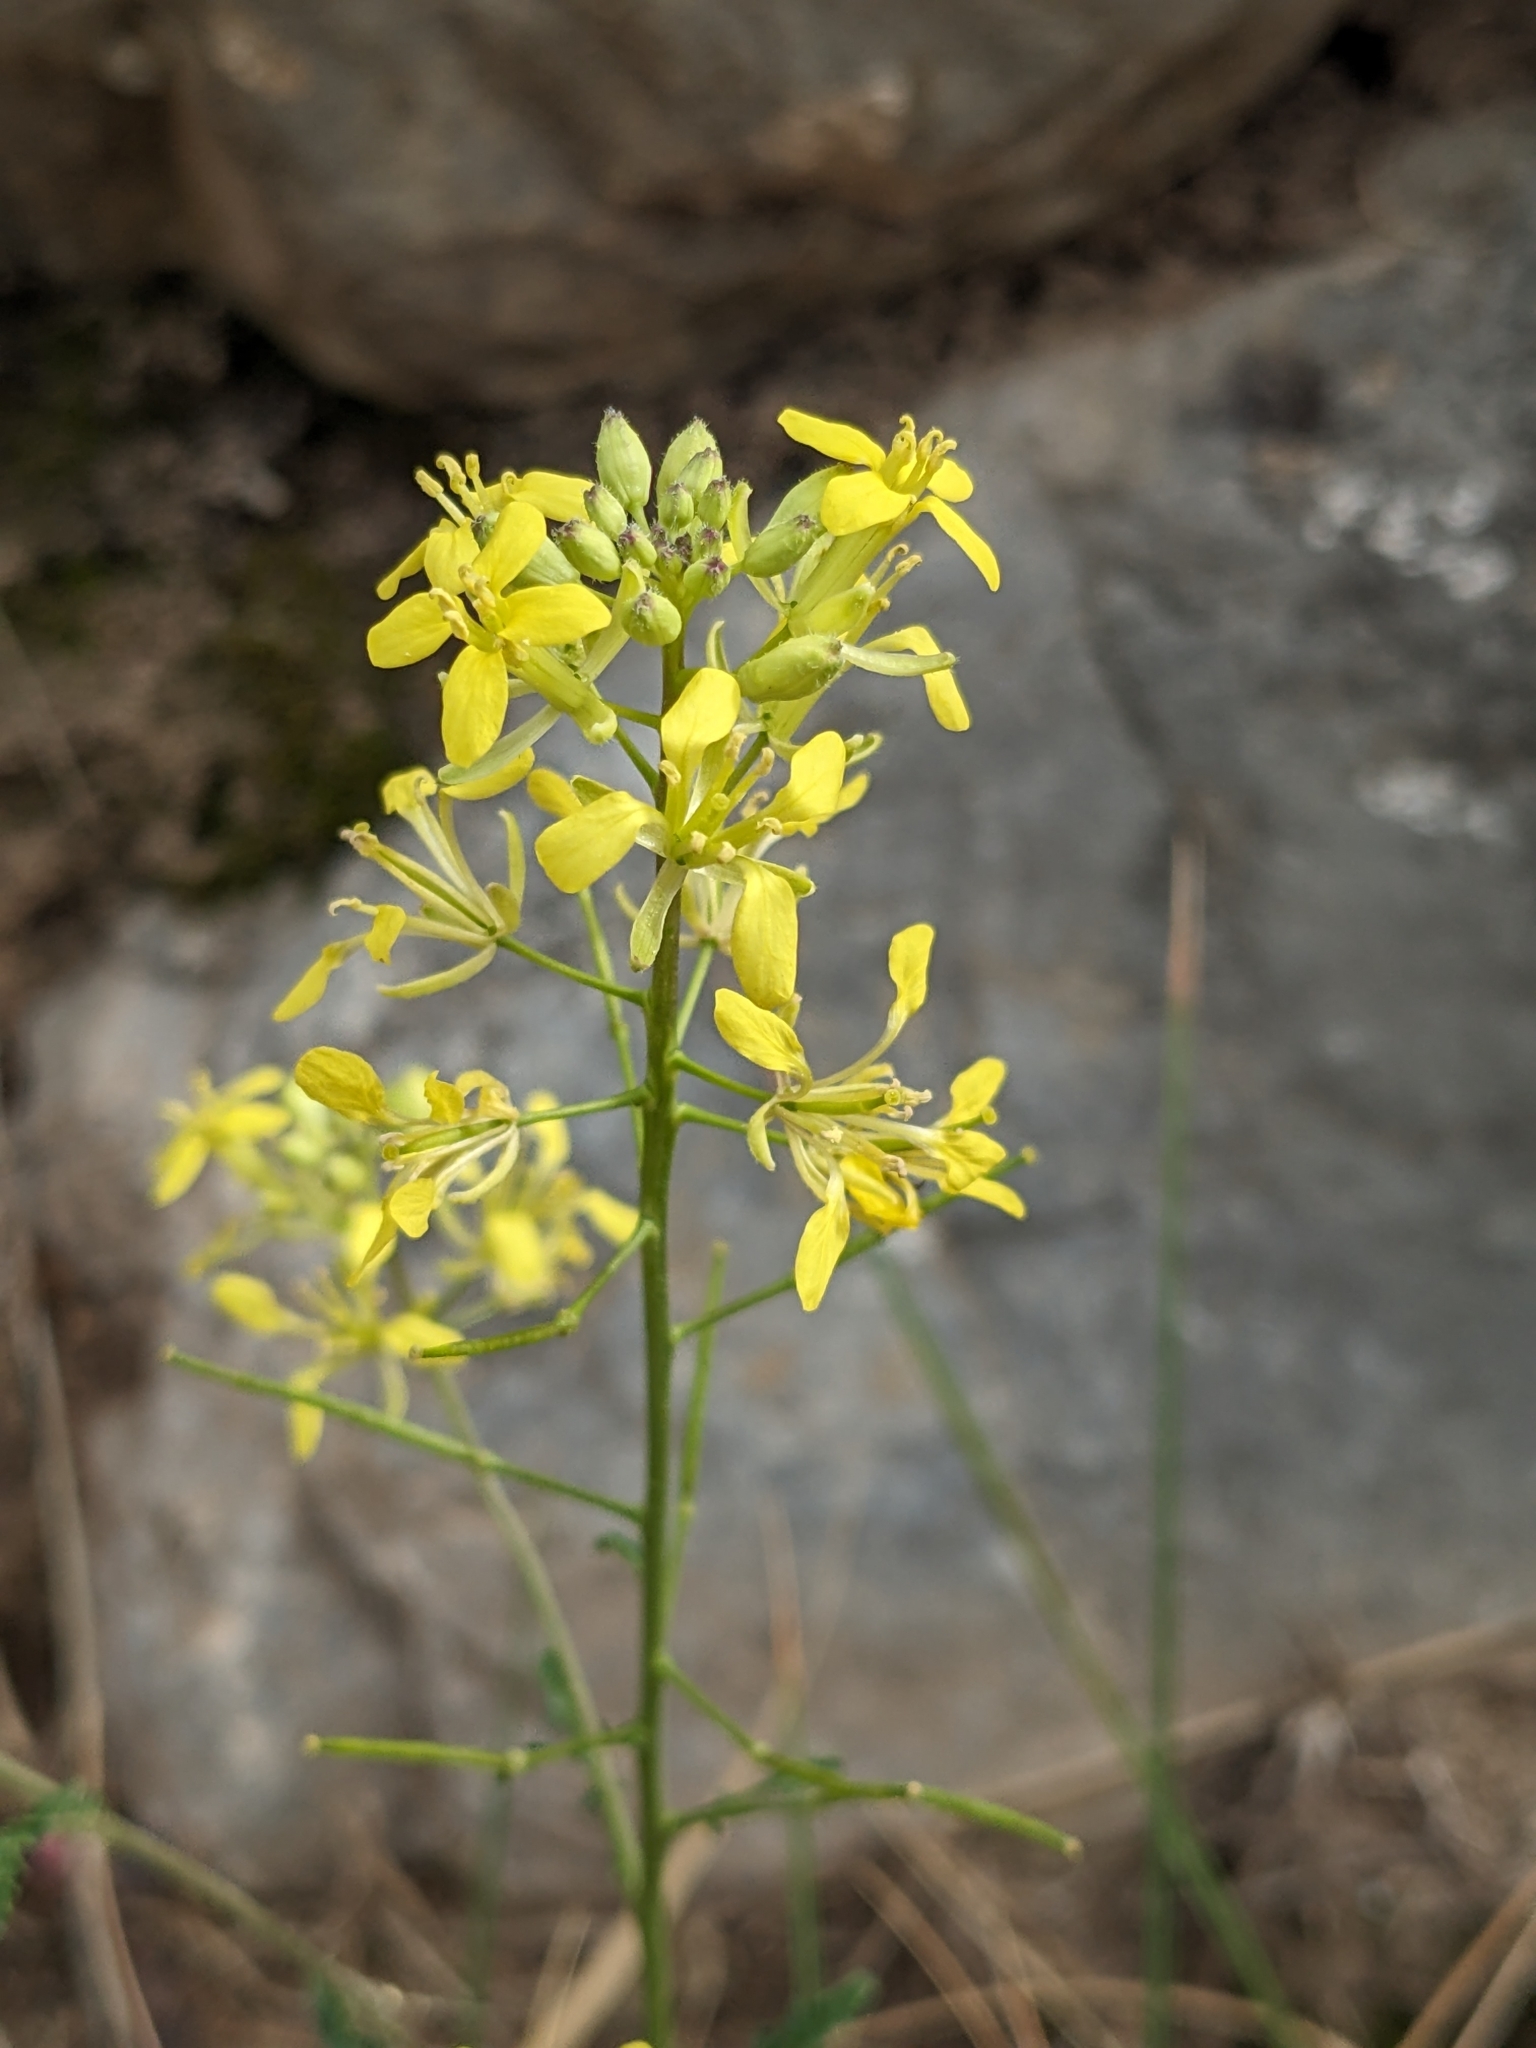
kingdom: Plantae
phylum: Tracheophyta
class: Magnoliopsida
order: Brassicales
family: Brassicaceae
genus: Erucastrum
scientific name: Erucastrum nasturtiifolium
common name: Watercress-leaf rocket
